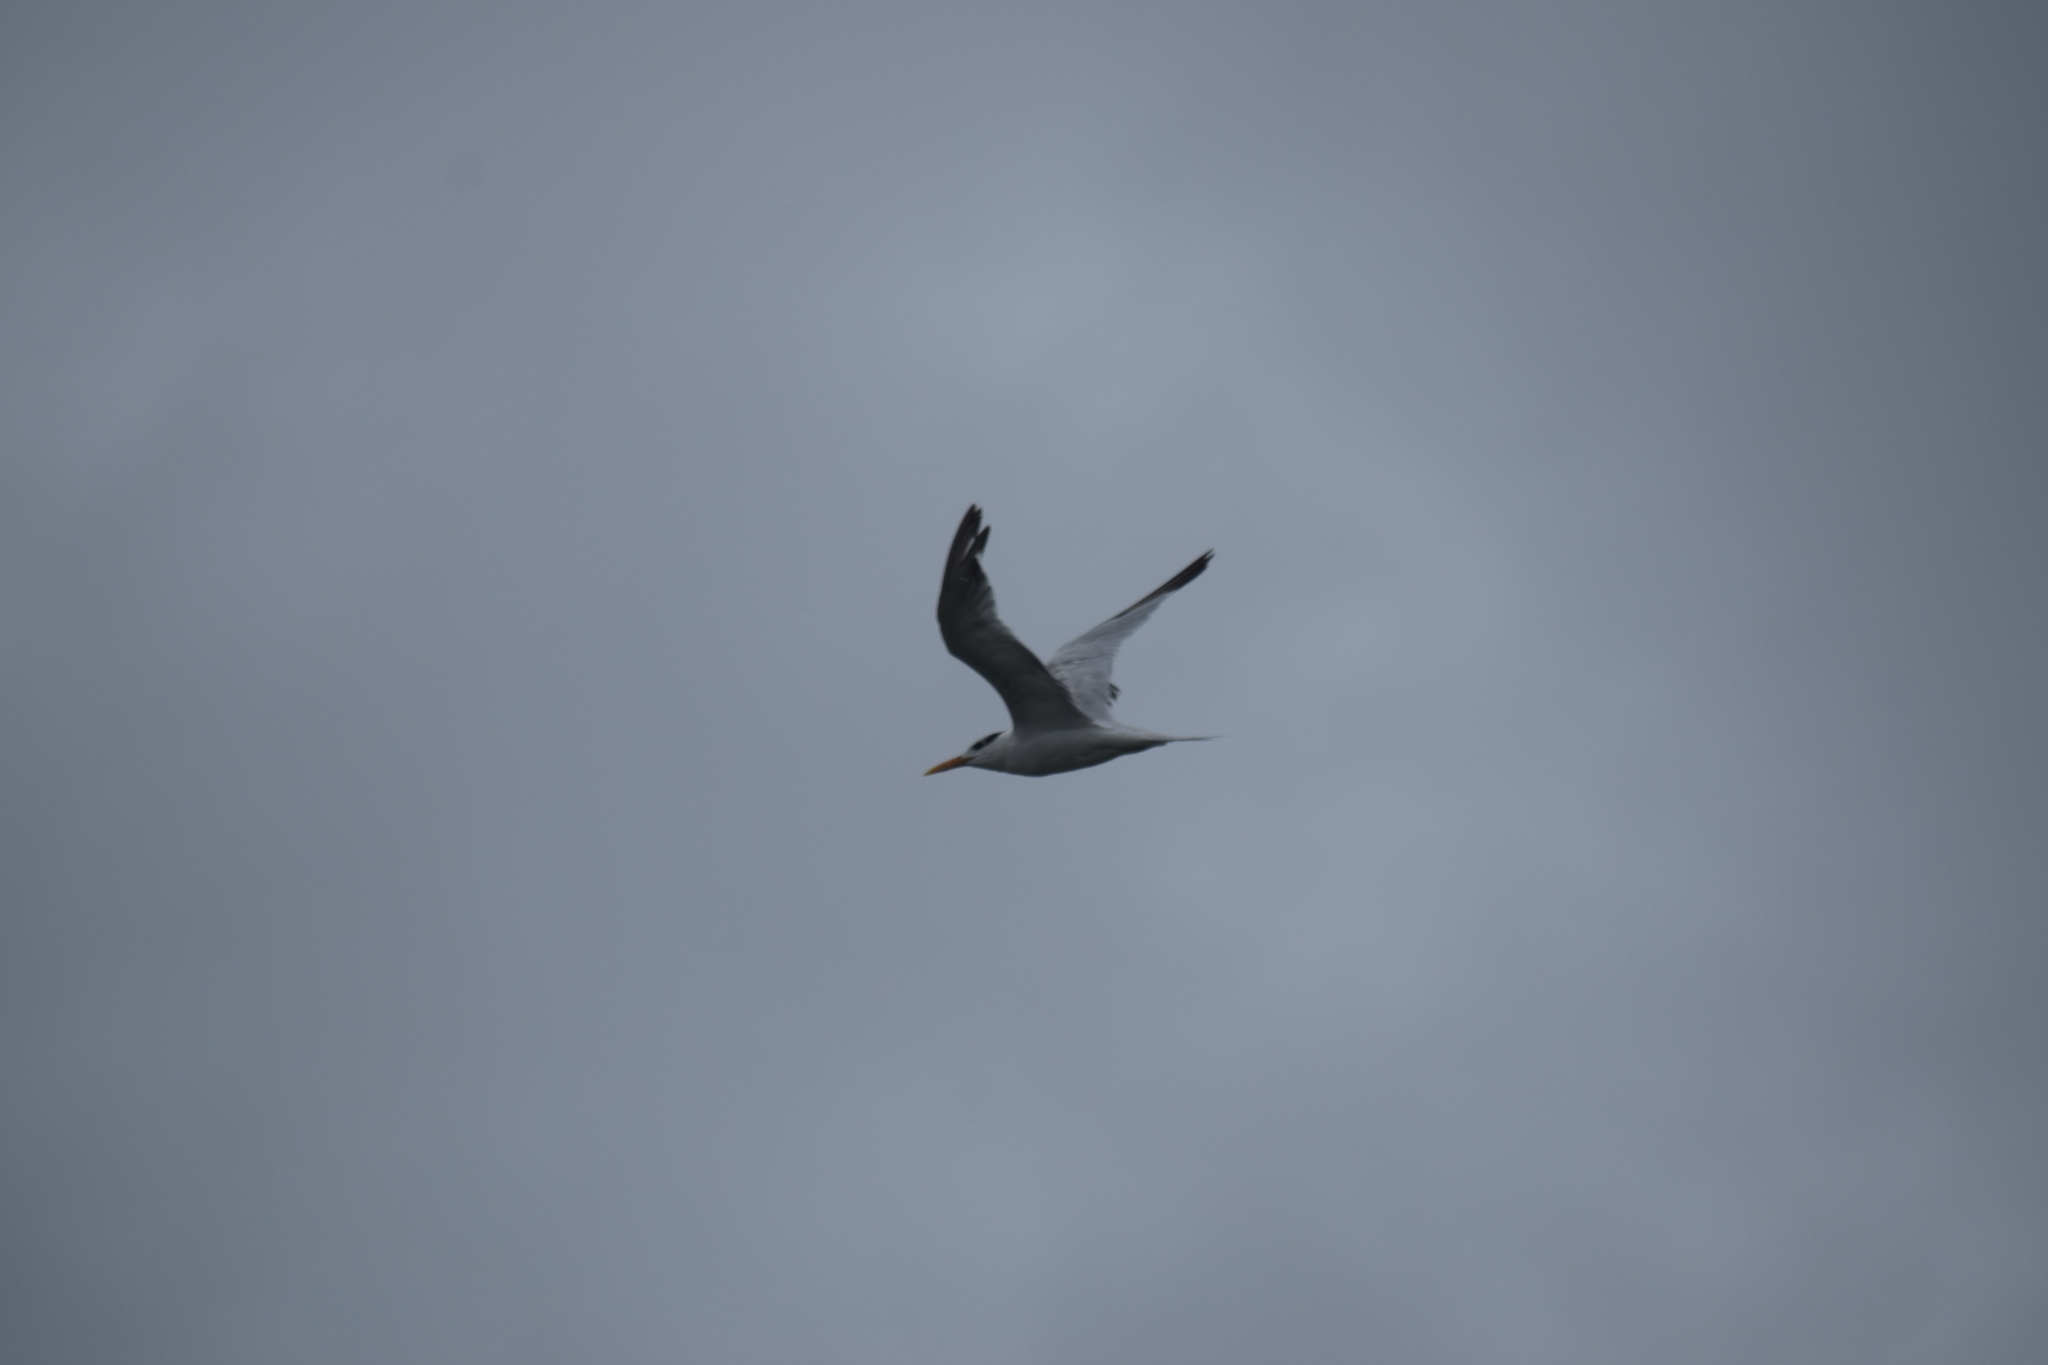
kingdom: Animalia
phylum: Chordata
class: Aves
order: Charadriiformes
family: Laridae
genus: Thalasseus
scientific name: Thalasseus maximus
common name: Royal tern
